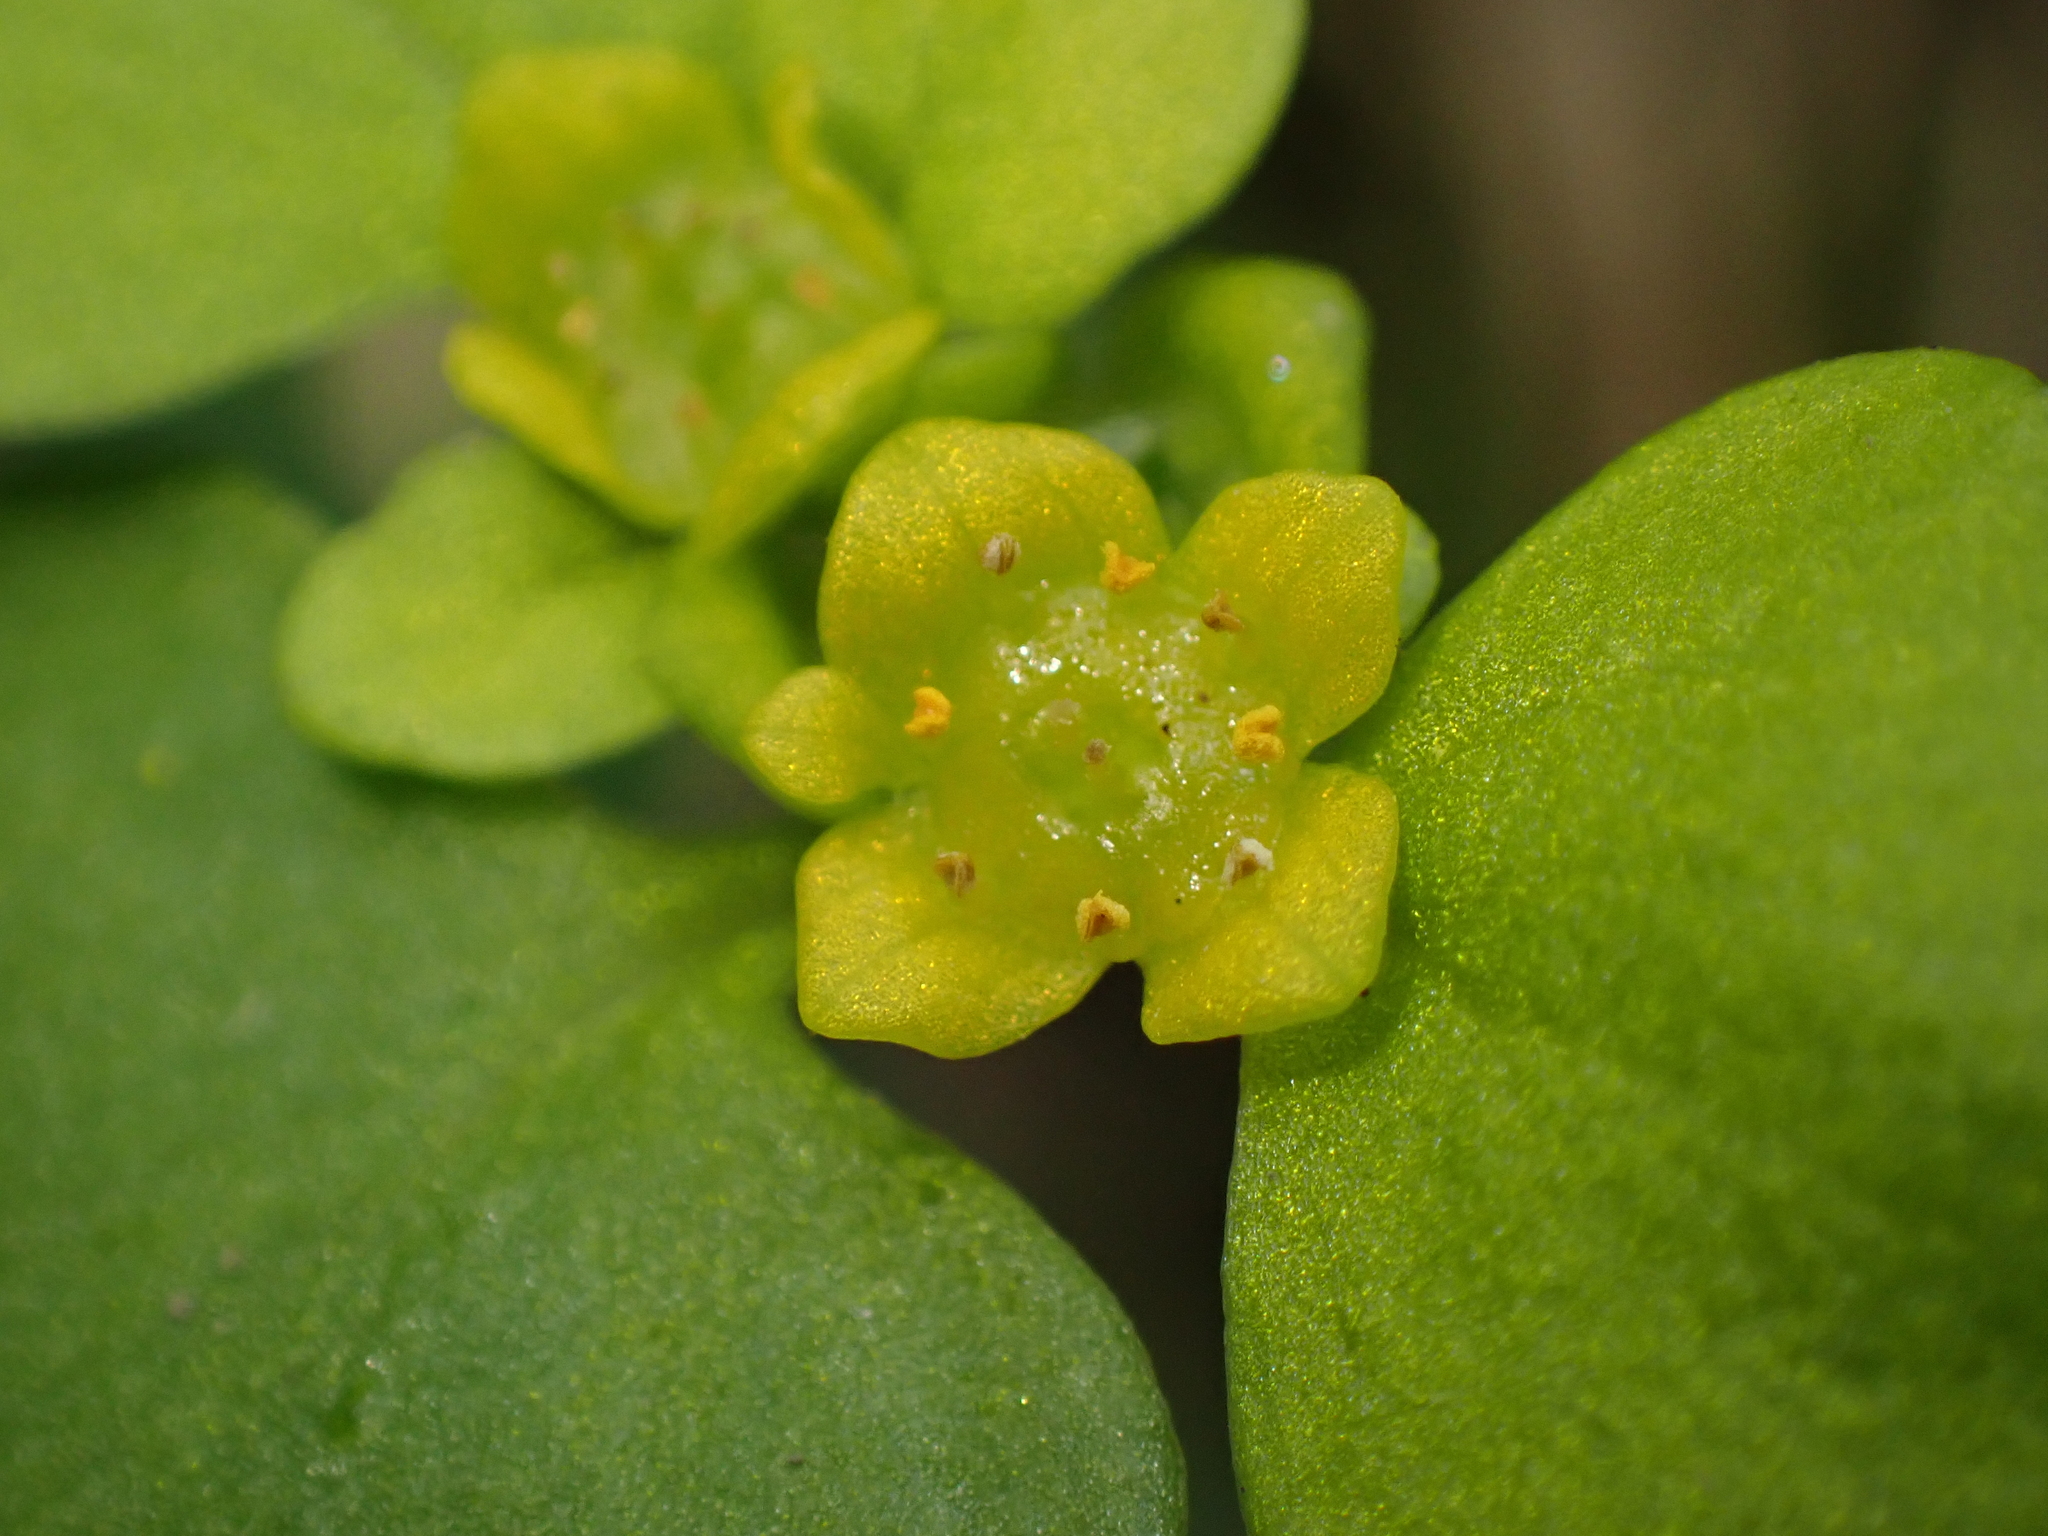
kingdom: Plantae
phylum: Tracheophyta
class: Magnoliopsida
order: Saxifragales
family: Saxifragaceae
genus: Chrysosplenium
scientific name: Chrysosplenium alternifolium
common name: Alternate-leaved golden-saxifrage
